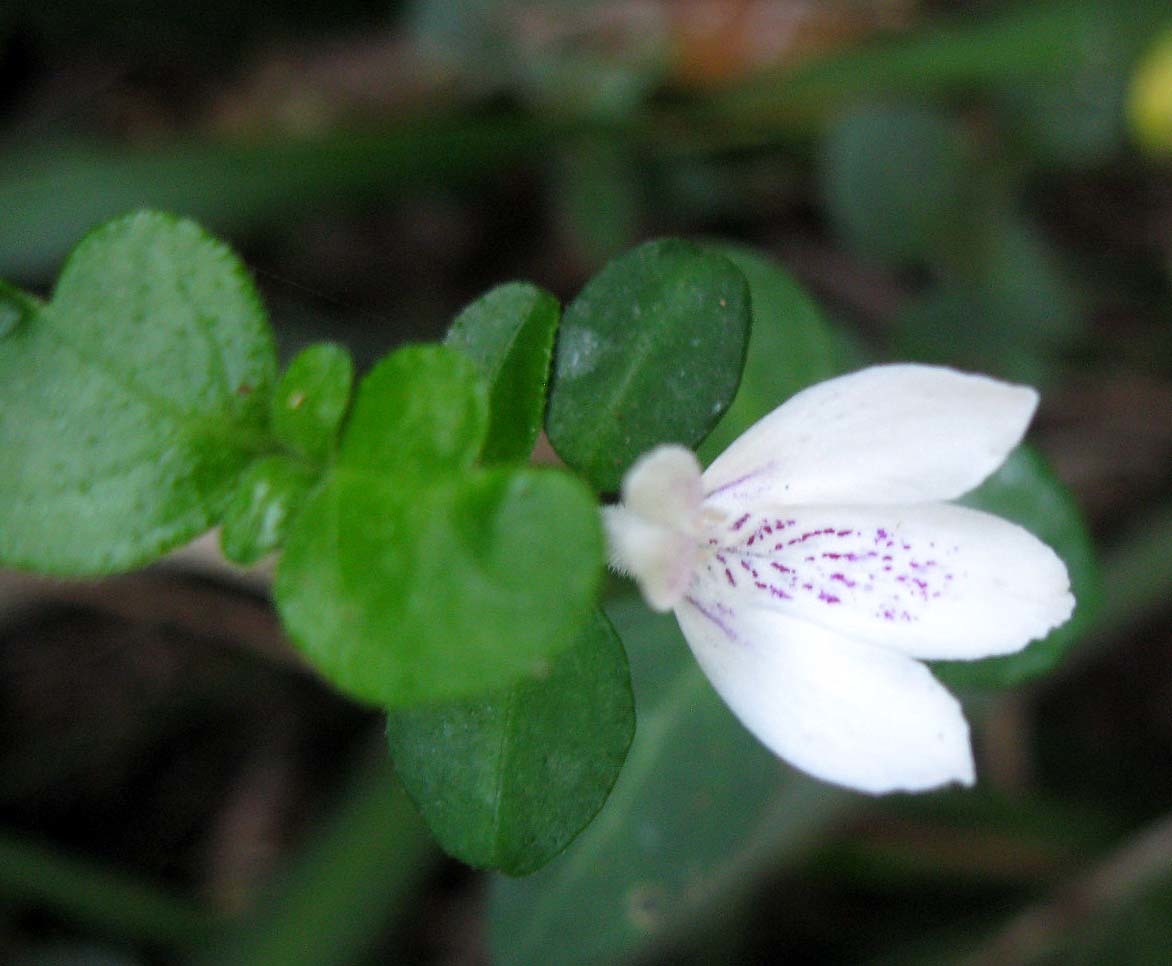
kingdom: Plantae
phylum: Tracheophyta
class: Magnoliopsida
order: Lamiales
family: Acanthaceae
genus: Justicia
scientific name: Justicia tubulosa
